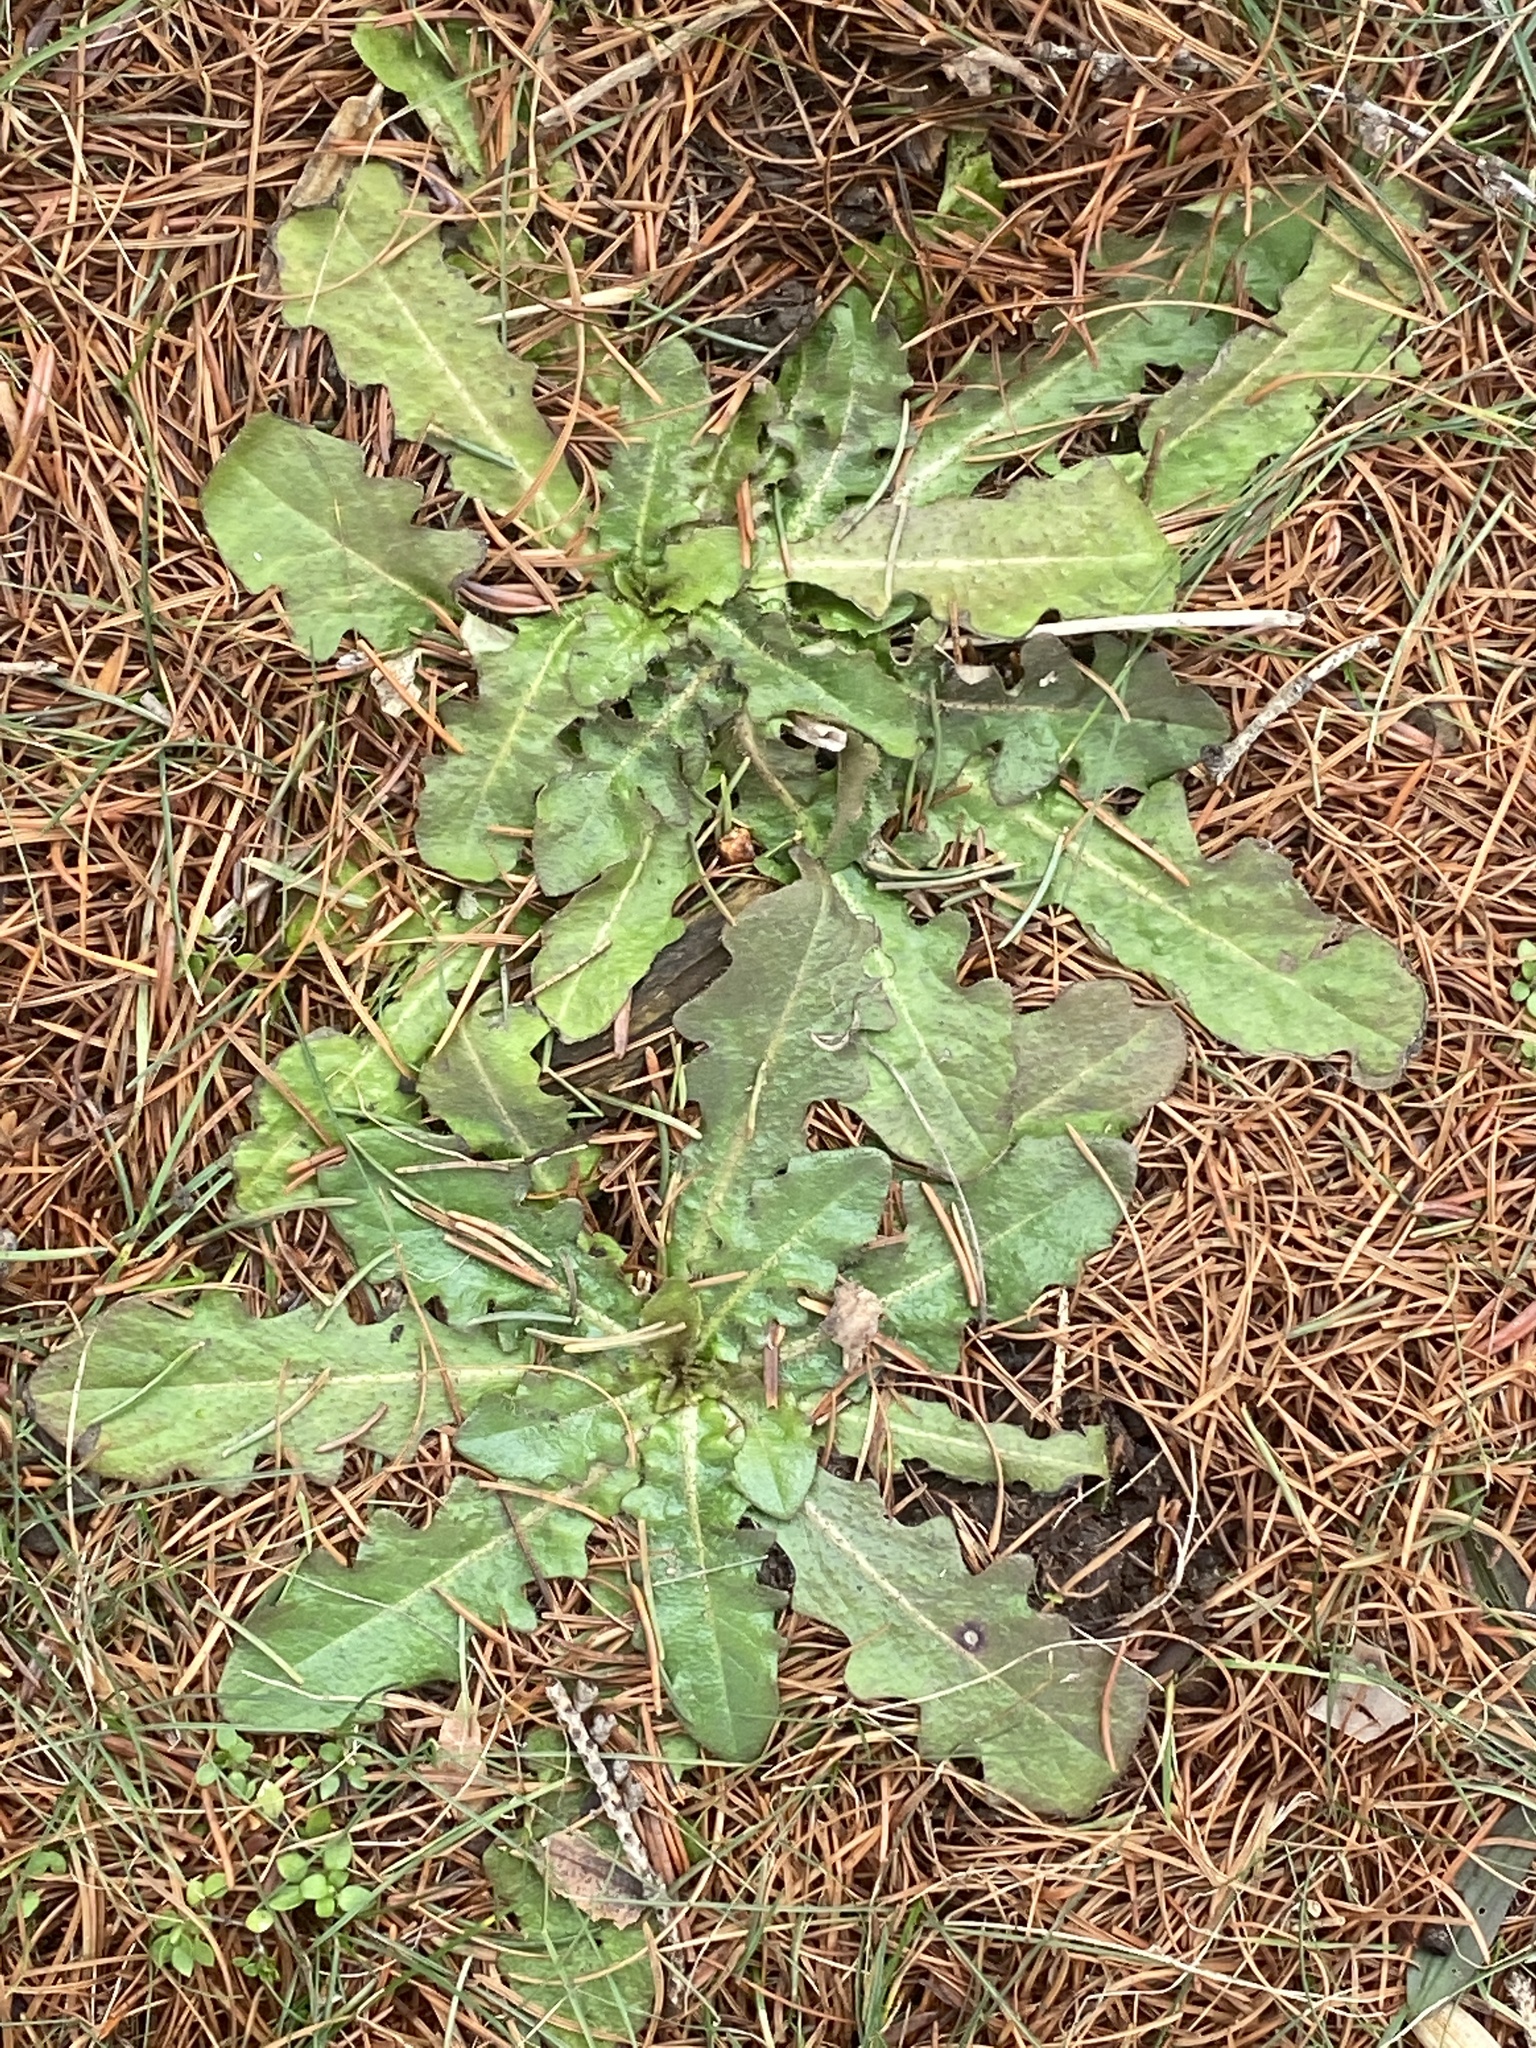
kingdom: Plantae
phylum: Tracheophyta
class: Magnoliopsida
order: Asterales
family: Asteraceae
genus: Hypochaeris
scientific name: Hypochaeris radicata
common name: Flatweed
